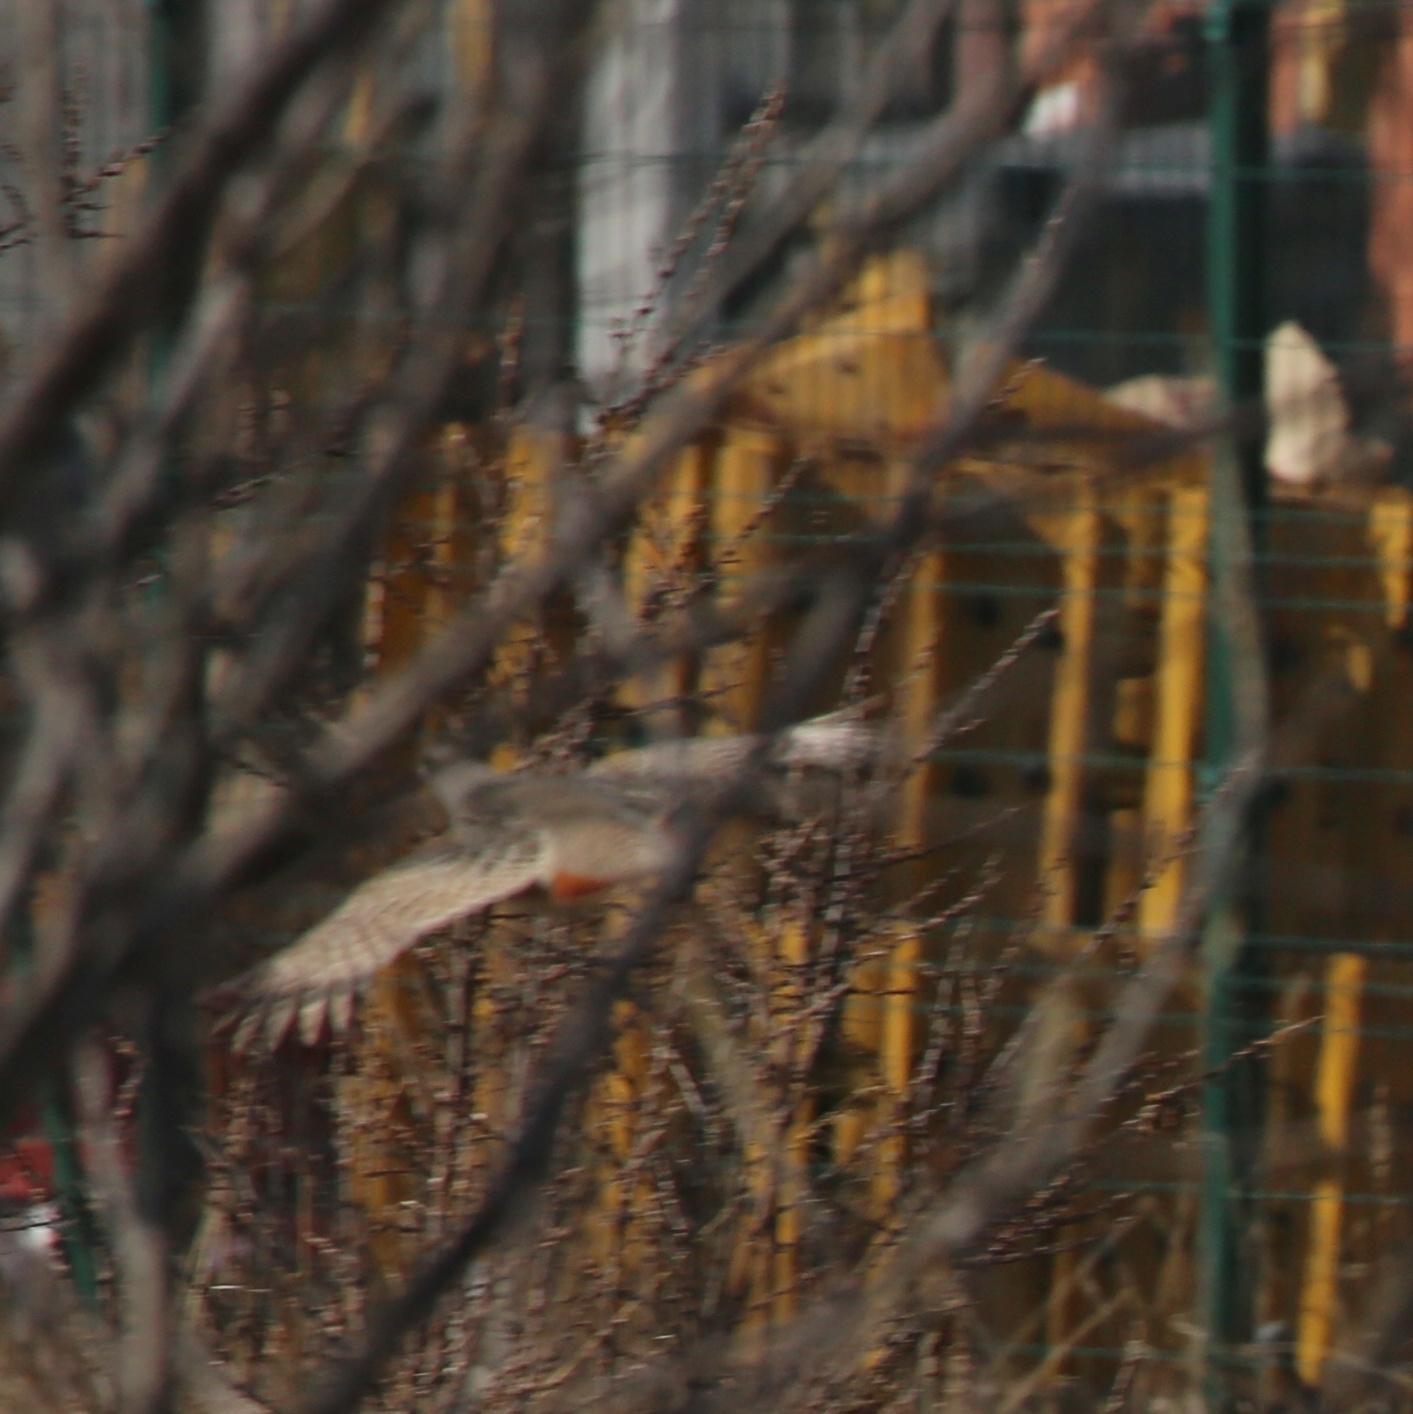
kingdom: Animalia
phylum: Chordata
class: Aves
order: Galliformes
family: Phasianidae
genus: Perdix
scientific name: Perdix perdix
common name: Grey partridge
